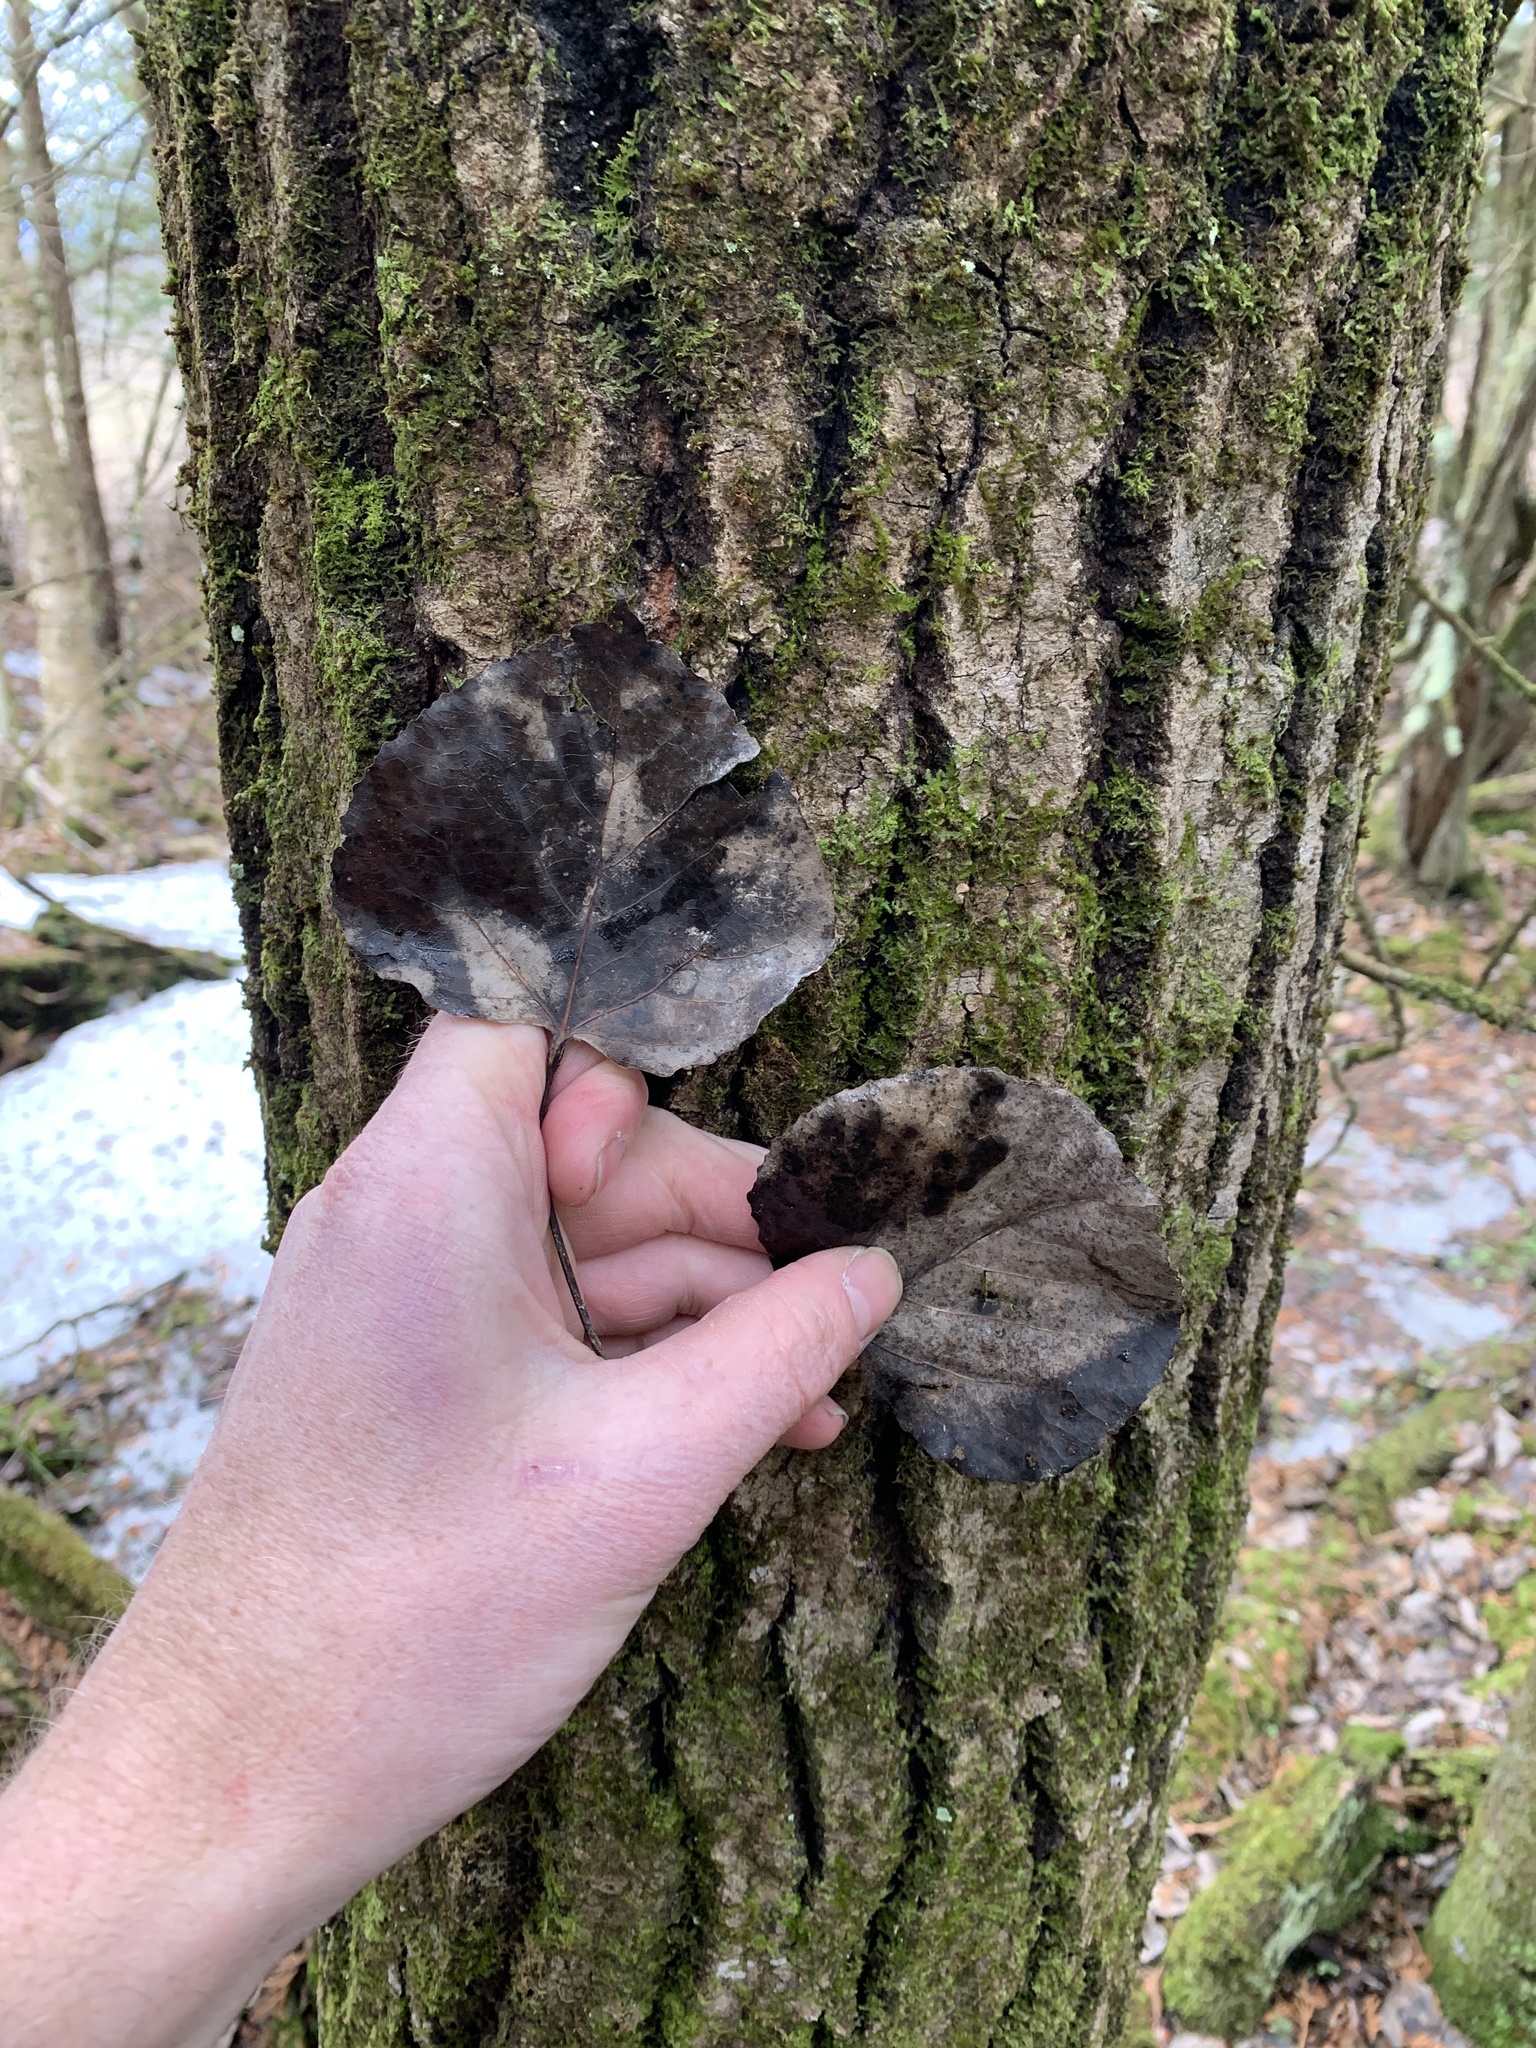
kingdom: Plantae
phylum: Tracheophyta
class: Magnoliopsida
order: Malpighiales
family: Salicaceae
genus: Populus
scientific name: Populus tremuloides
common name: Quaking aspen
